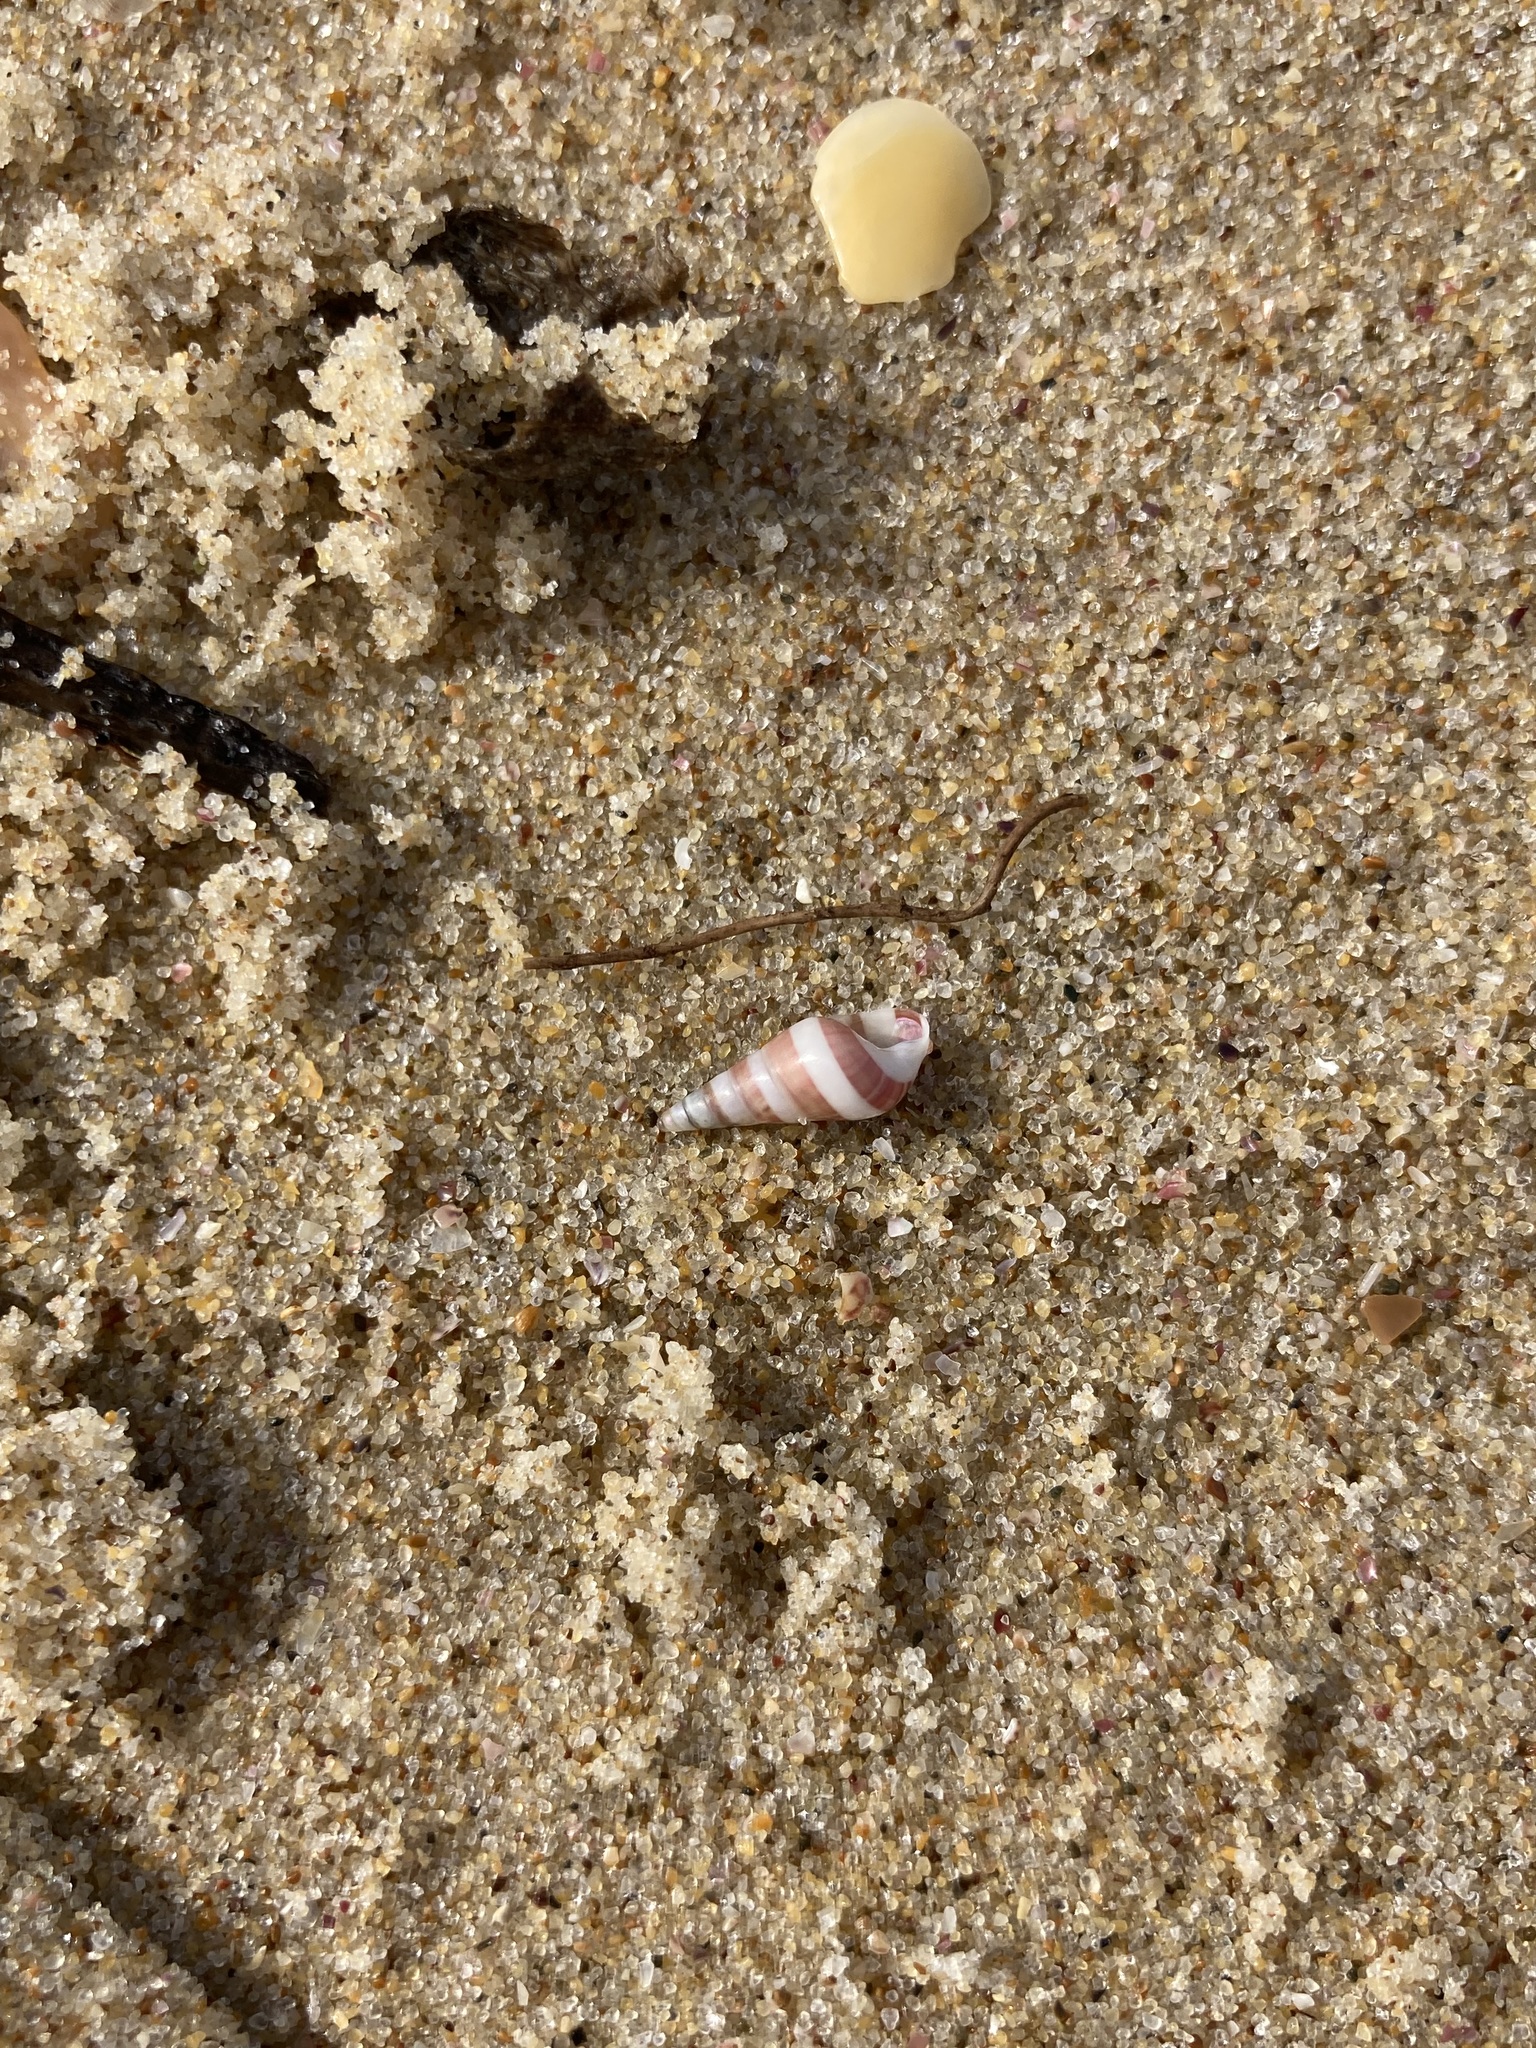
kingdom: Animalia
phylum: Mollusca
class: Gastropoda
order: Trochida
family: Trochidae
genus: Bankivia
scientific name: Bankivia fasciata
